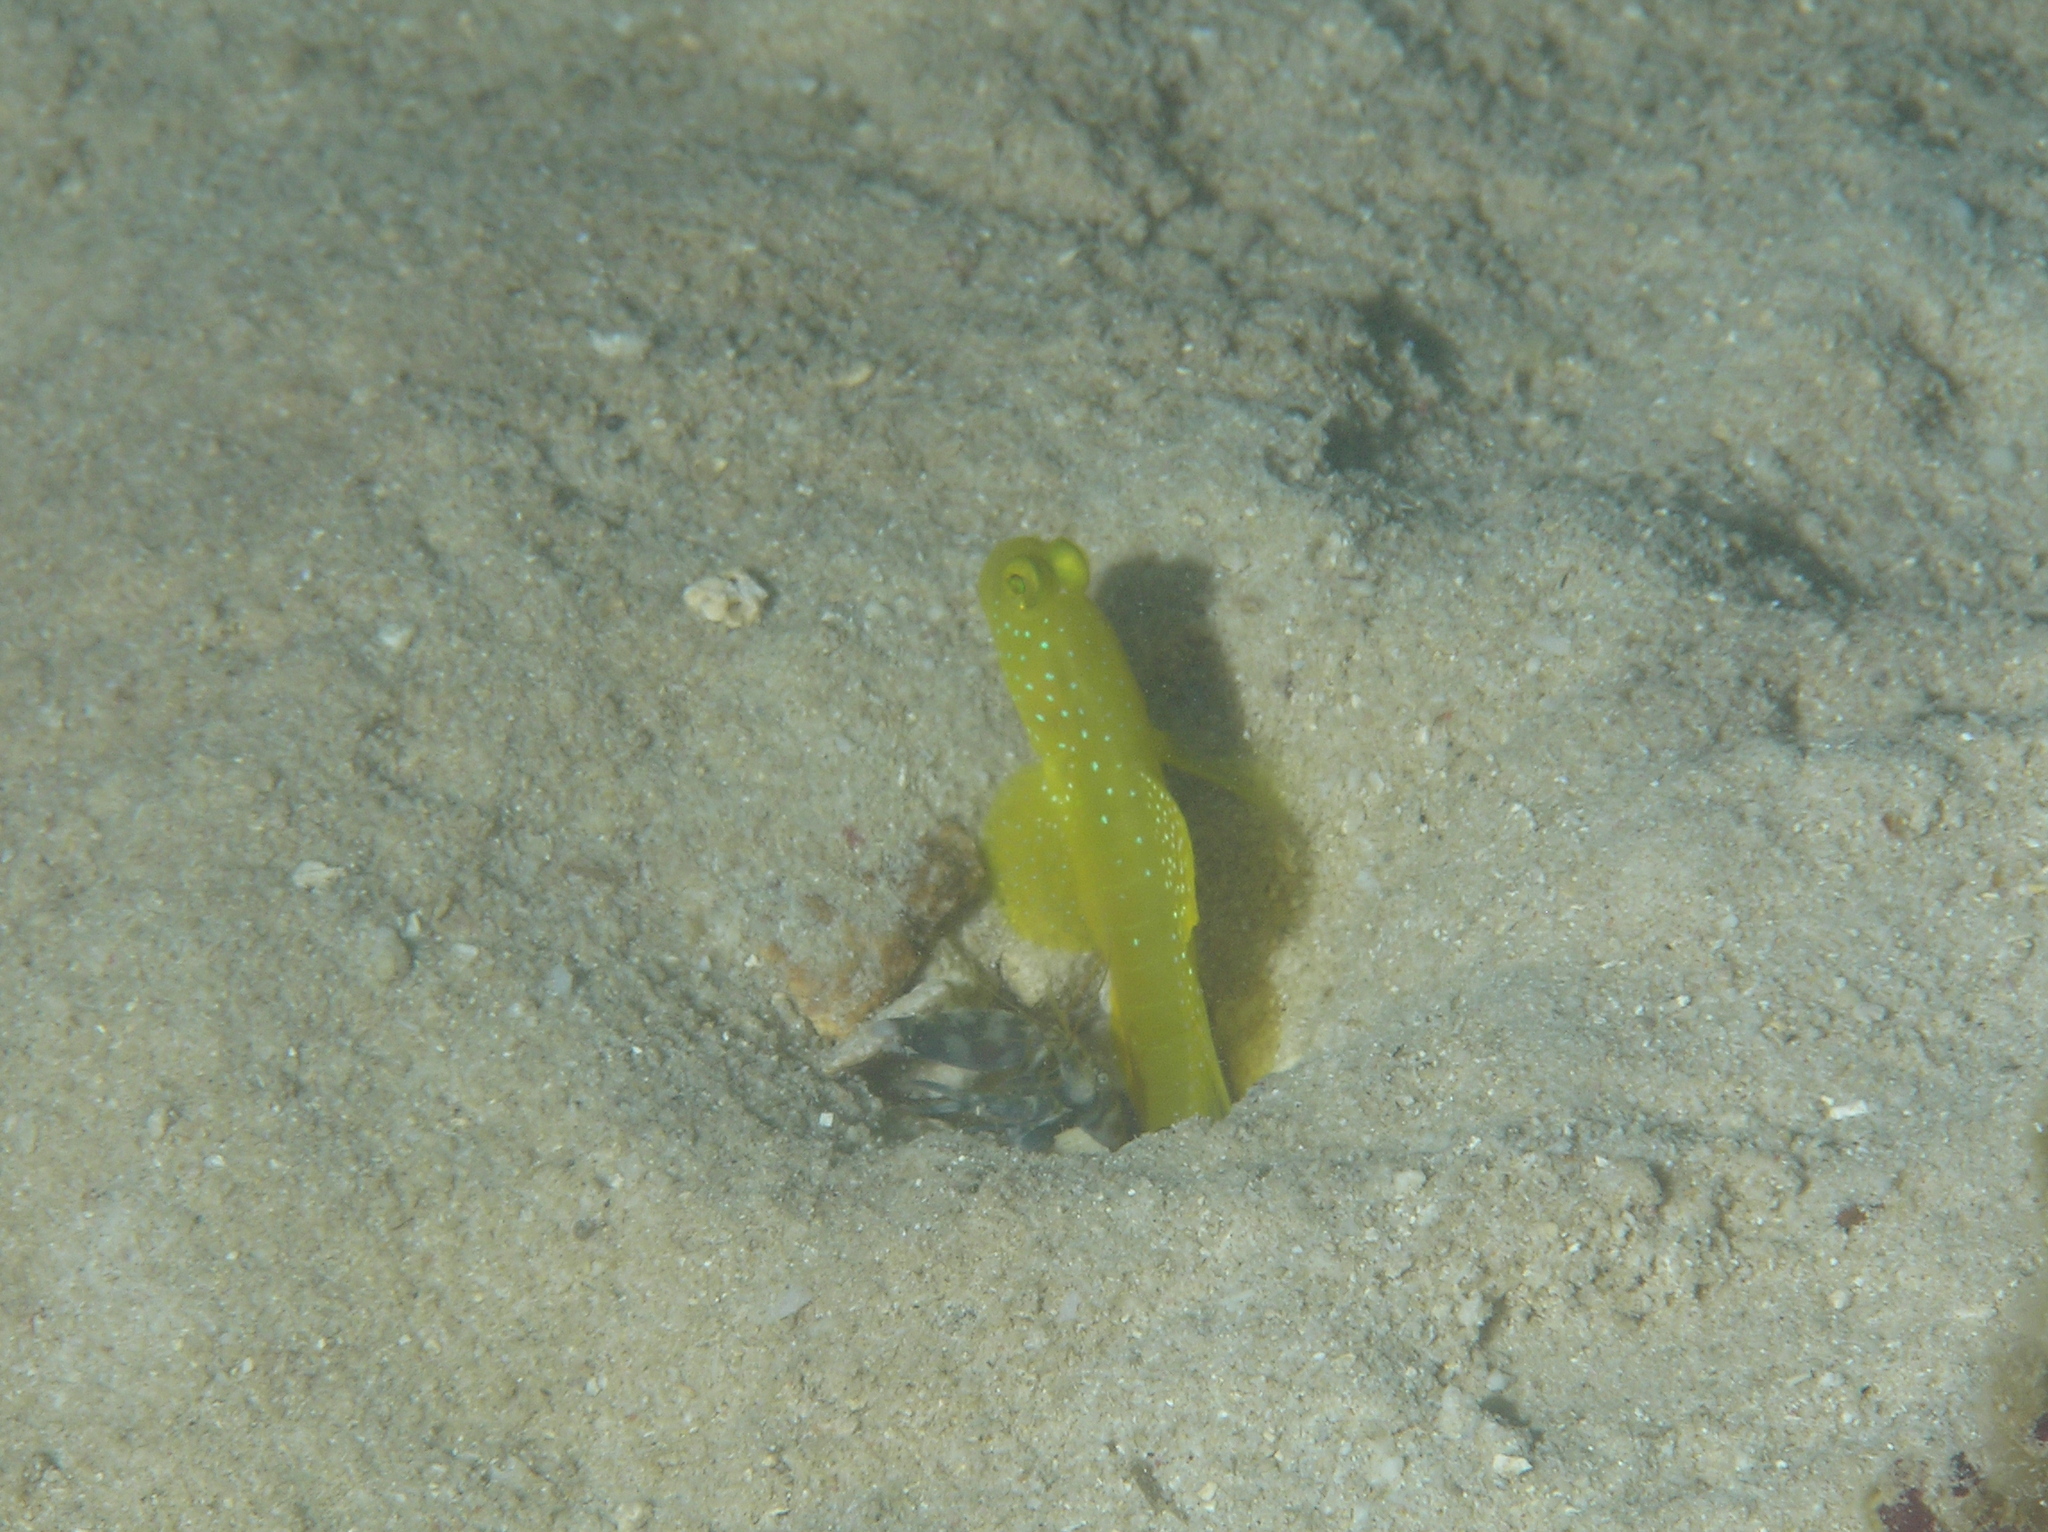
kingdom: Animalia
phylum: Chordata
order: Perciformes
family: Gobiidae
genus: Cryptocentrus
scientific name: Cryptocentrus cinctus
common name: Yellow shrimp goby
